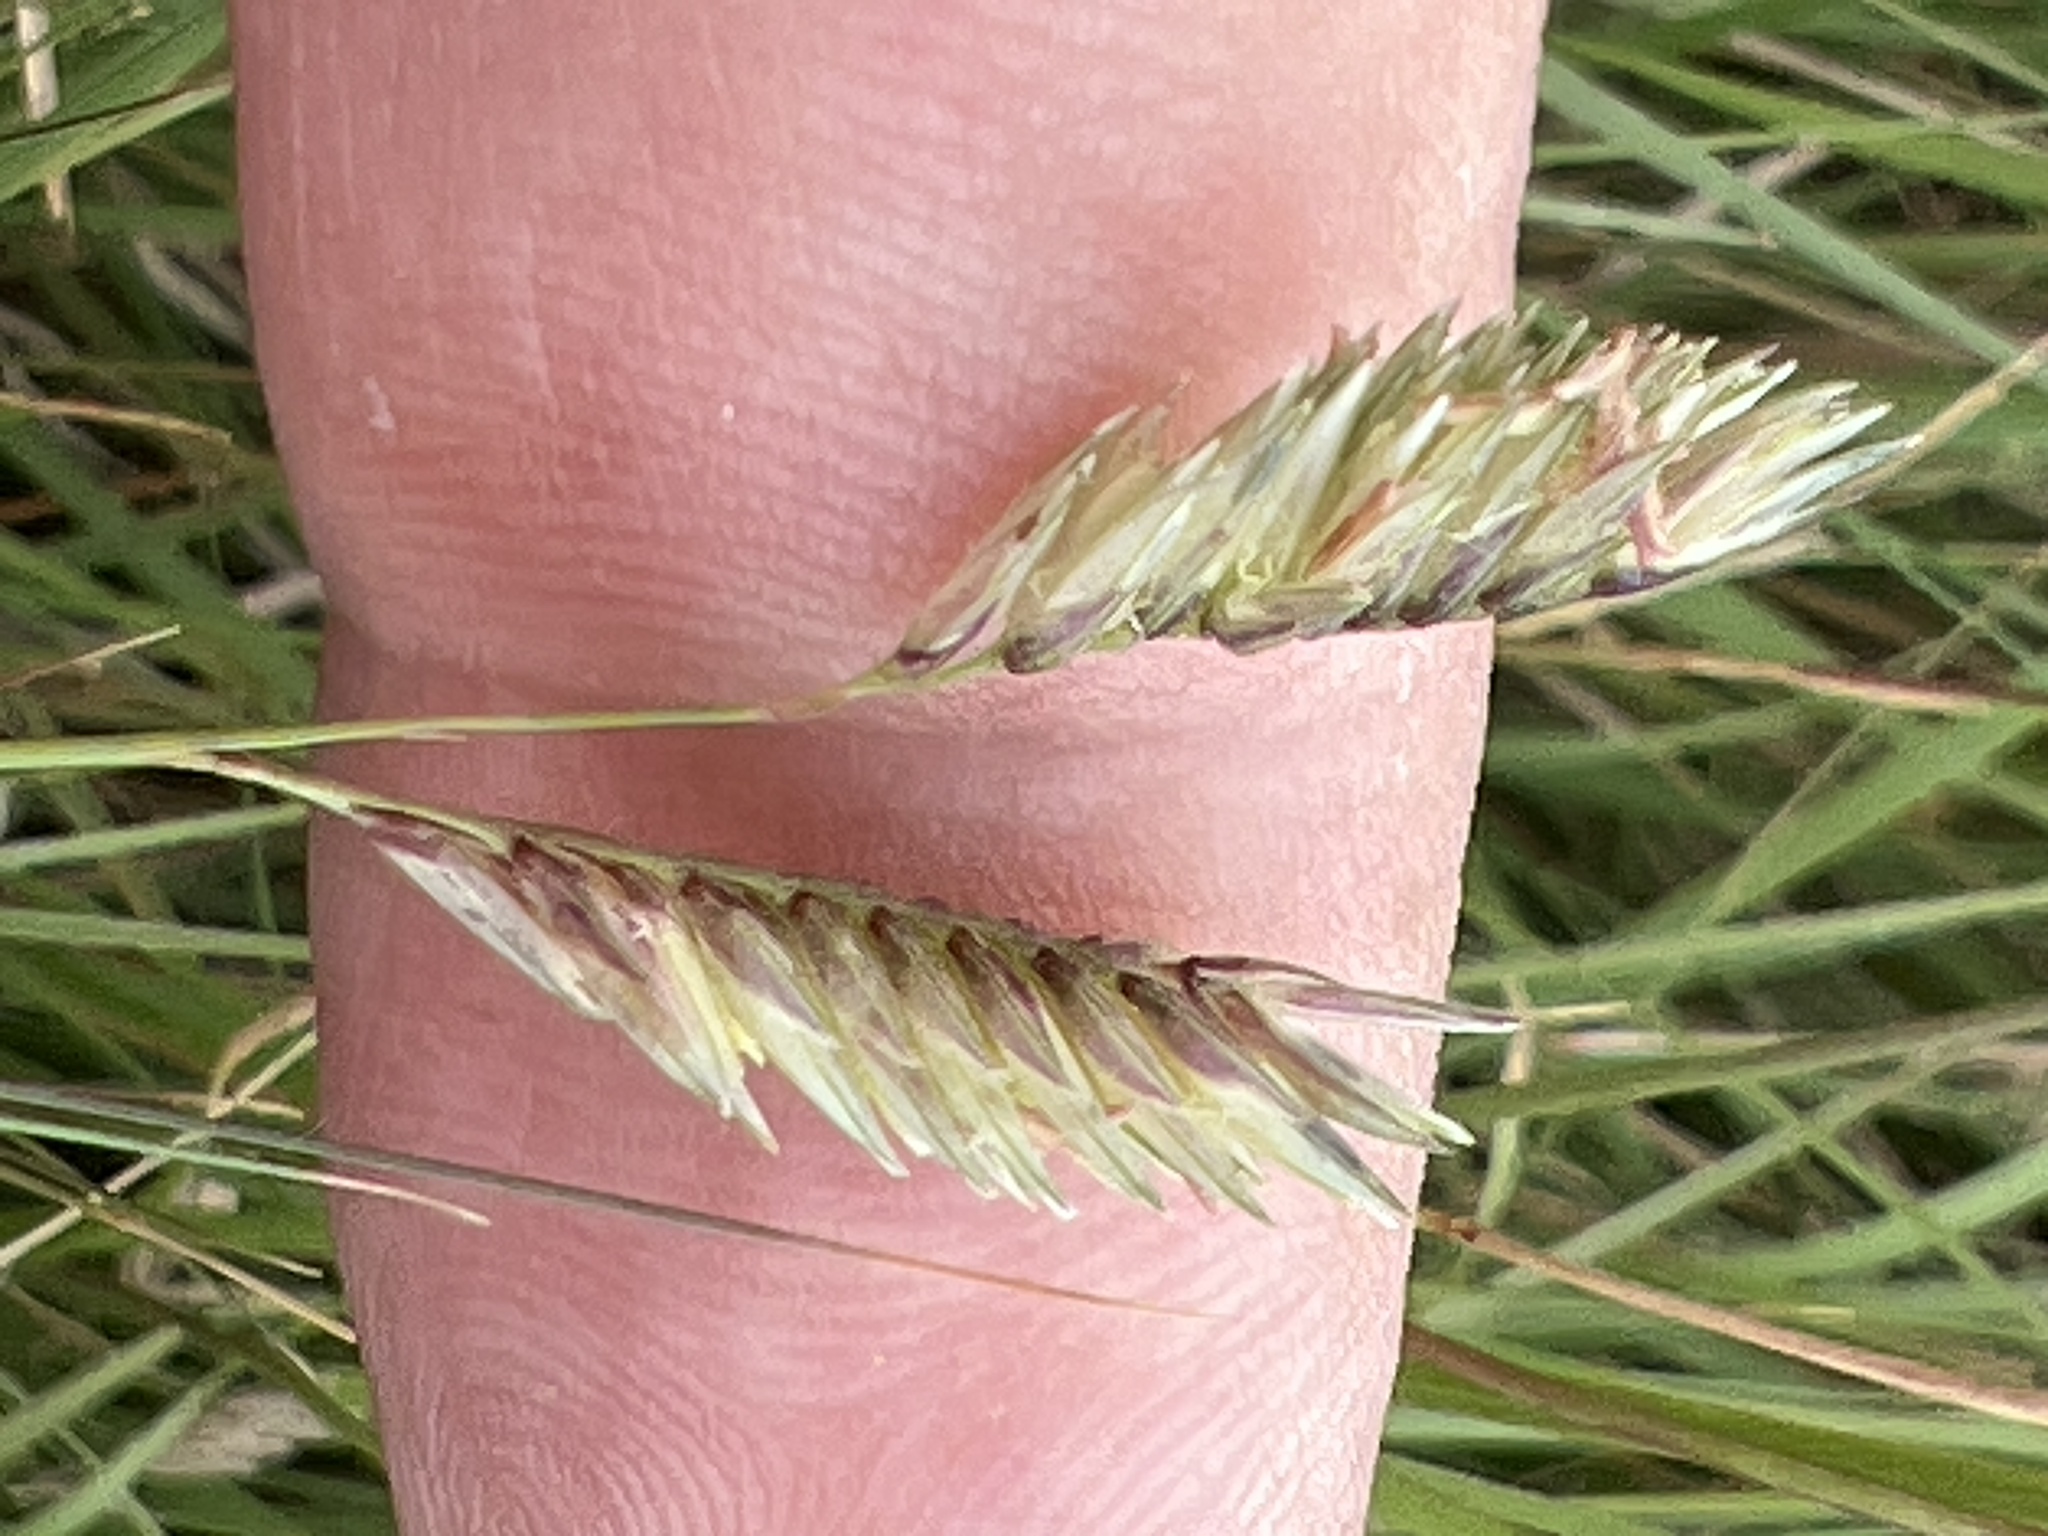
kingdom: Plantae
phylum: Tracheophyta
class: Liliopsida
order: Poales
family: Poaceae
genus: Bouteloua
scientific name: Bouteloua dactyloides
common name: Buffalo grass
